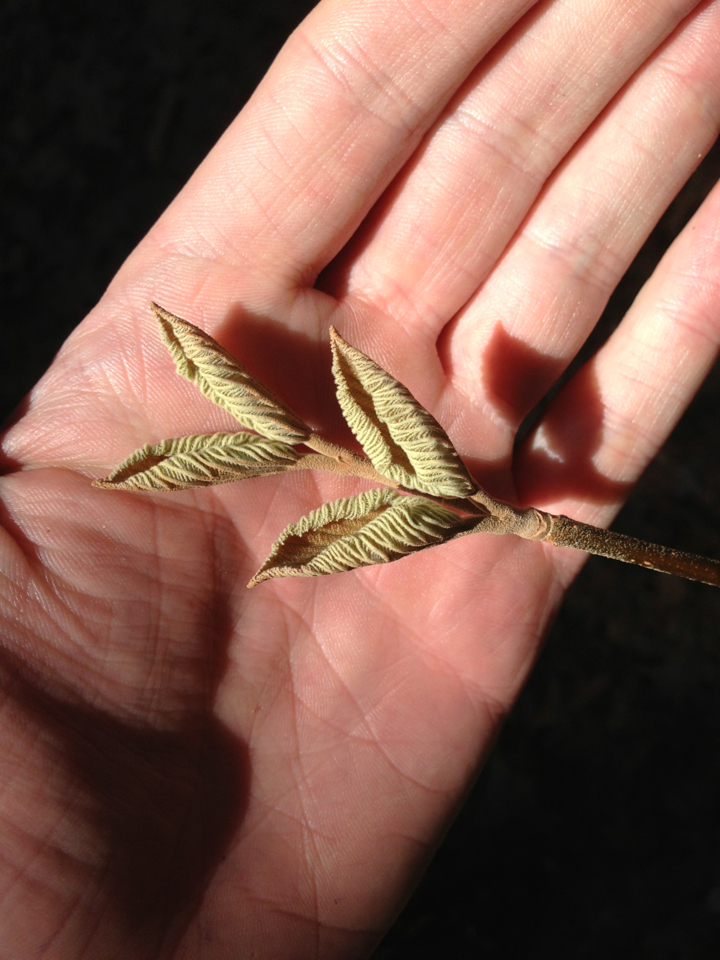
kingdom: Plantae
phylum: Tracheophyta
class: Magnoliopsida
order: Dipsacales
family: Viburnaceae
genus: Viburnum
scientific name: Viburnum lantanoides
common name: Hobblebush
